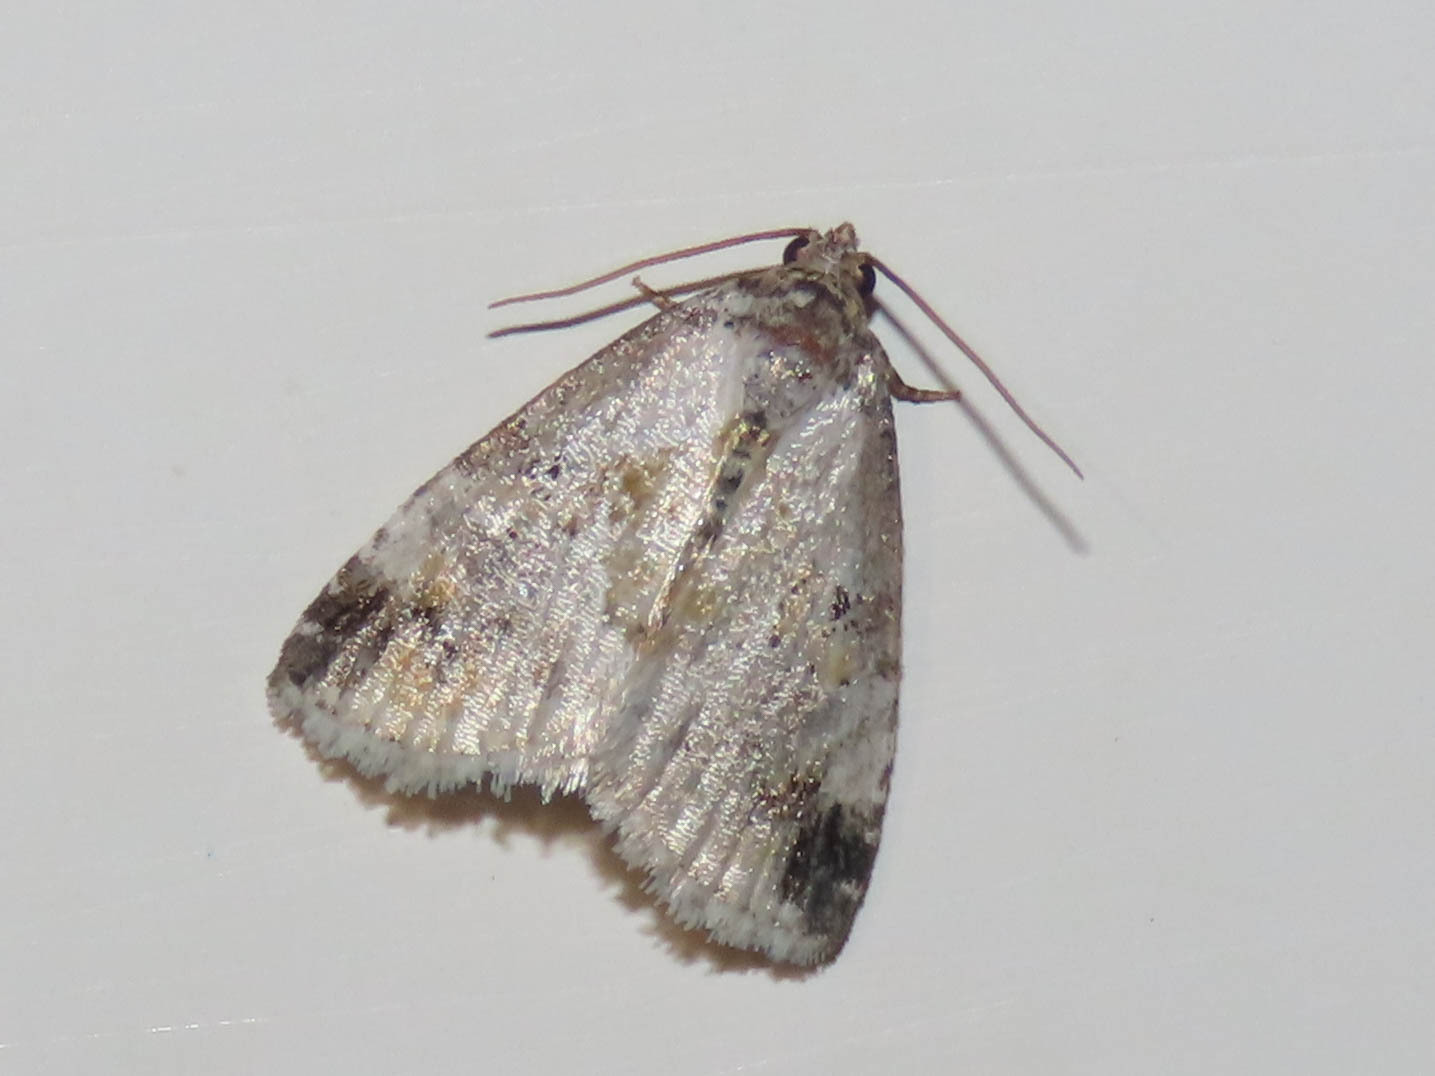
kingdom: Animalia
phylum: Arthropoda
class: Insecta
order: Lepidoptera
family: Noctuidae
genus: Maliattha
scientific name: Maliattha synochitis
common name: Black-dotted glyph
